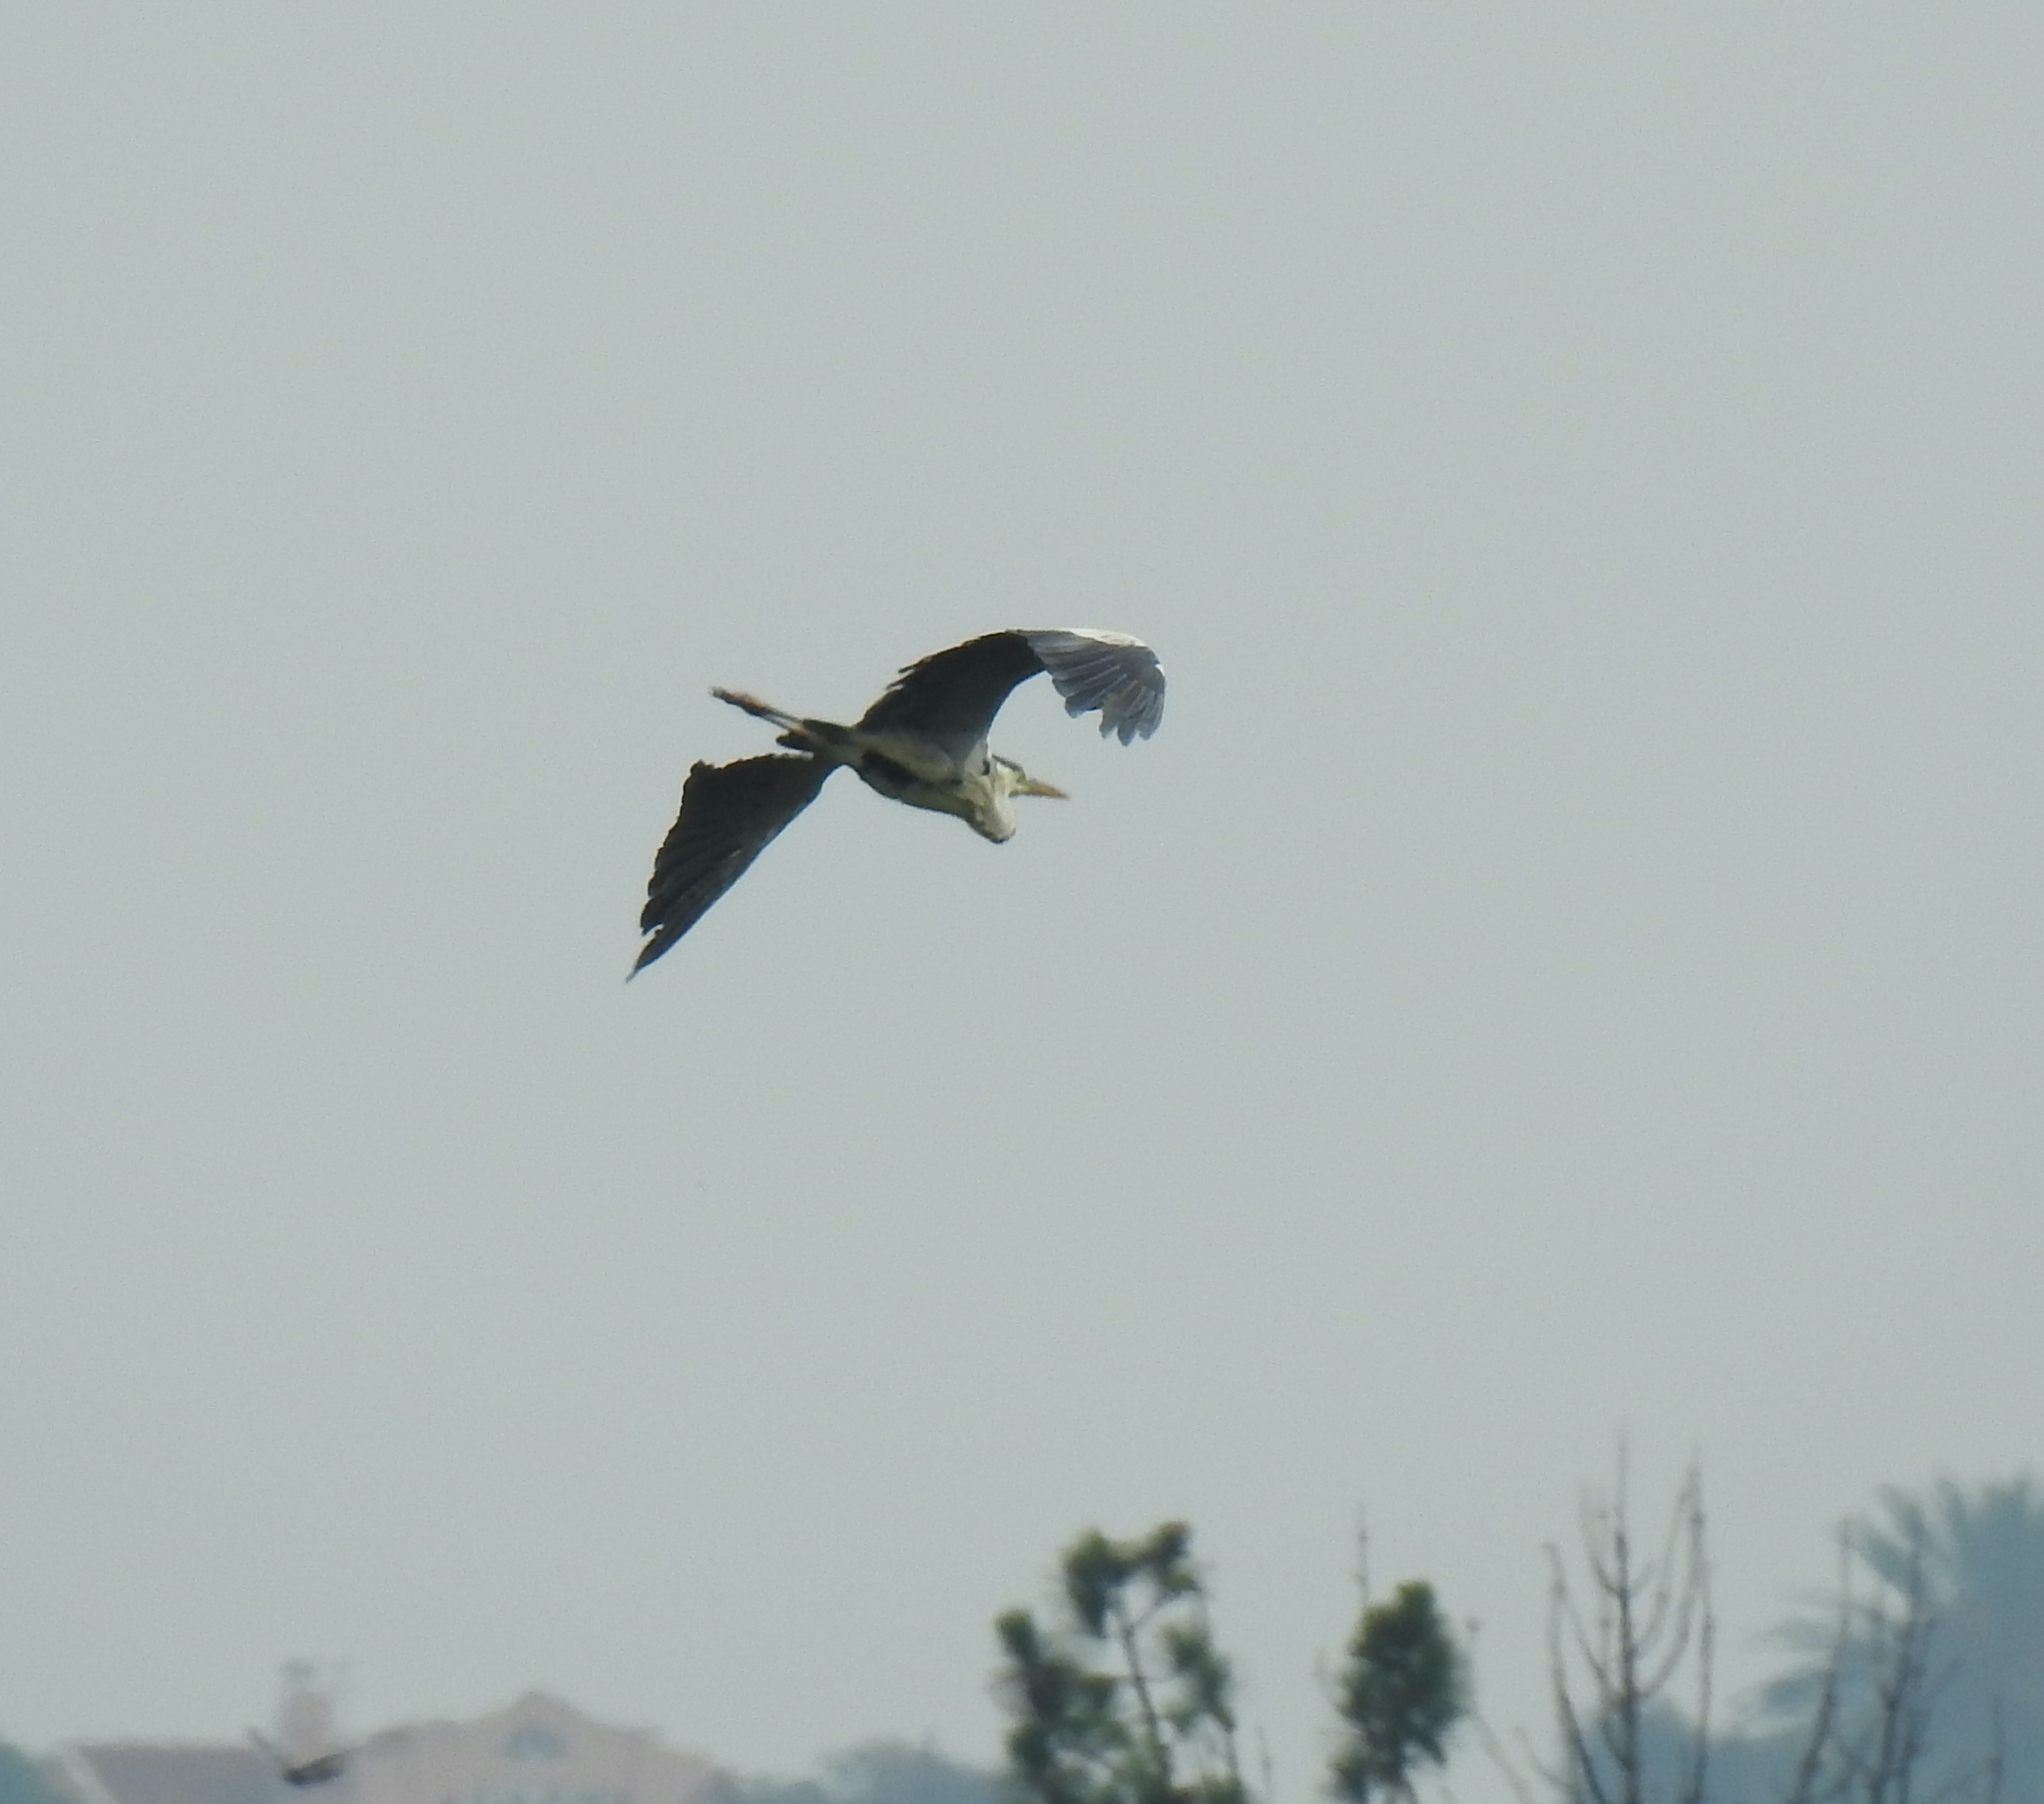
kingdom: Animalia
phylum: Chordata
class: Aves
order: Pelecaniformes
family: Ardeidae
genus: Ardea
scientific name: Ardea melanocephala
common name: Black-headed heron
